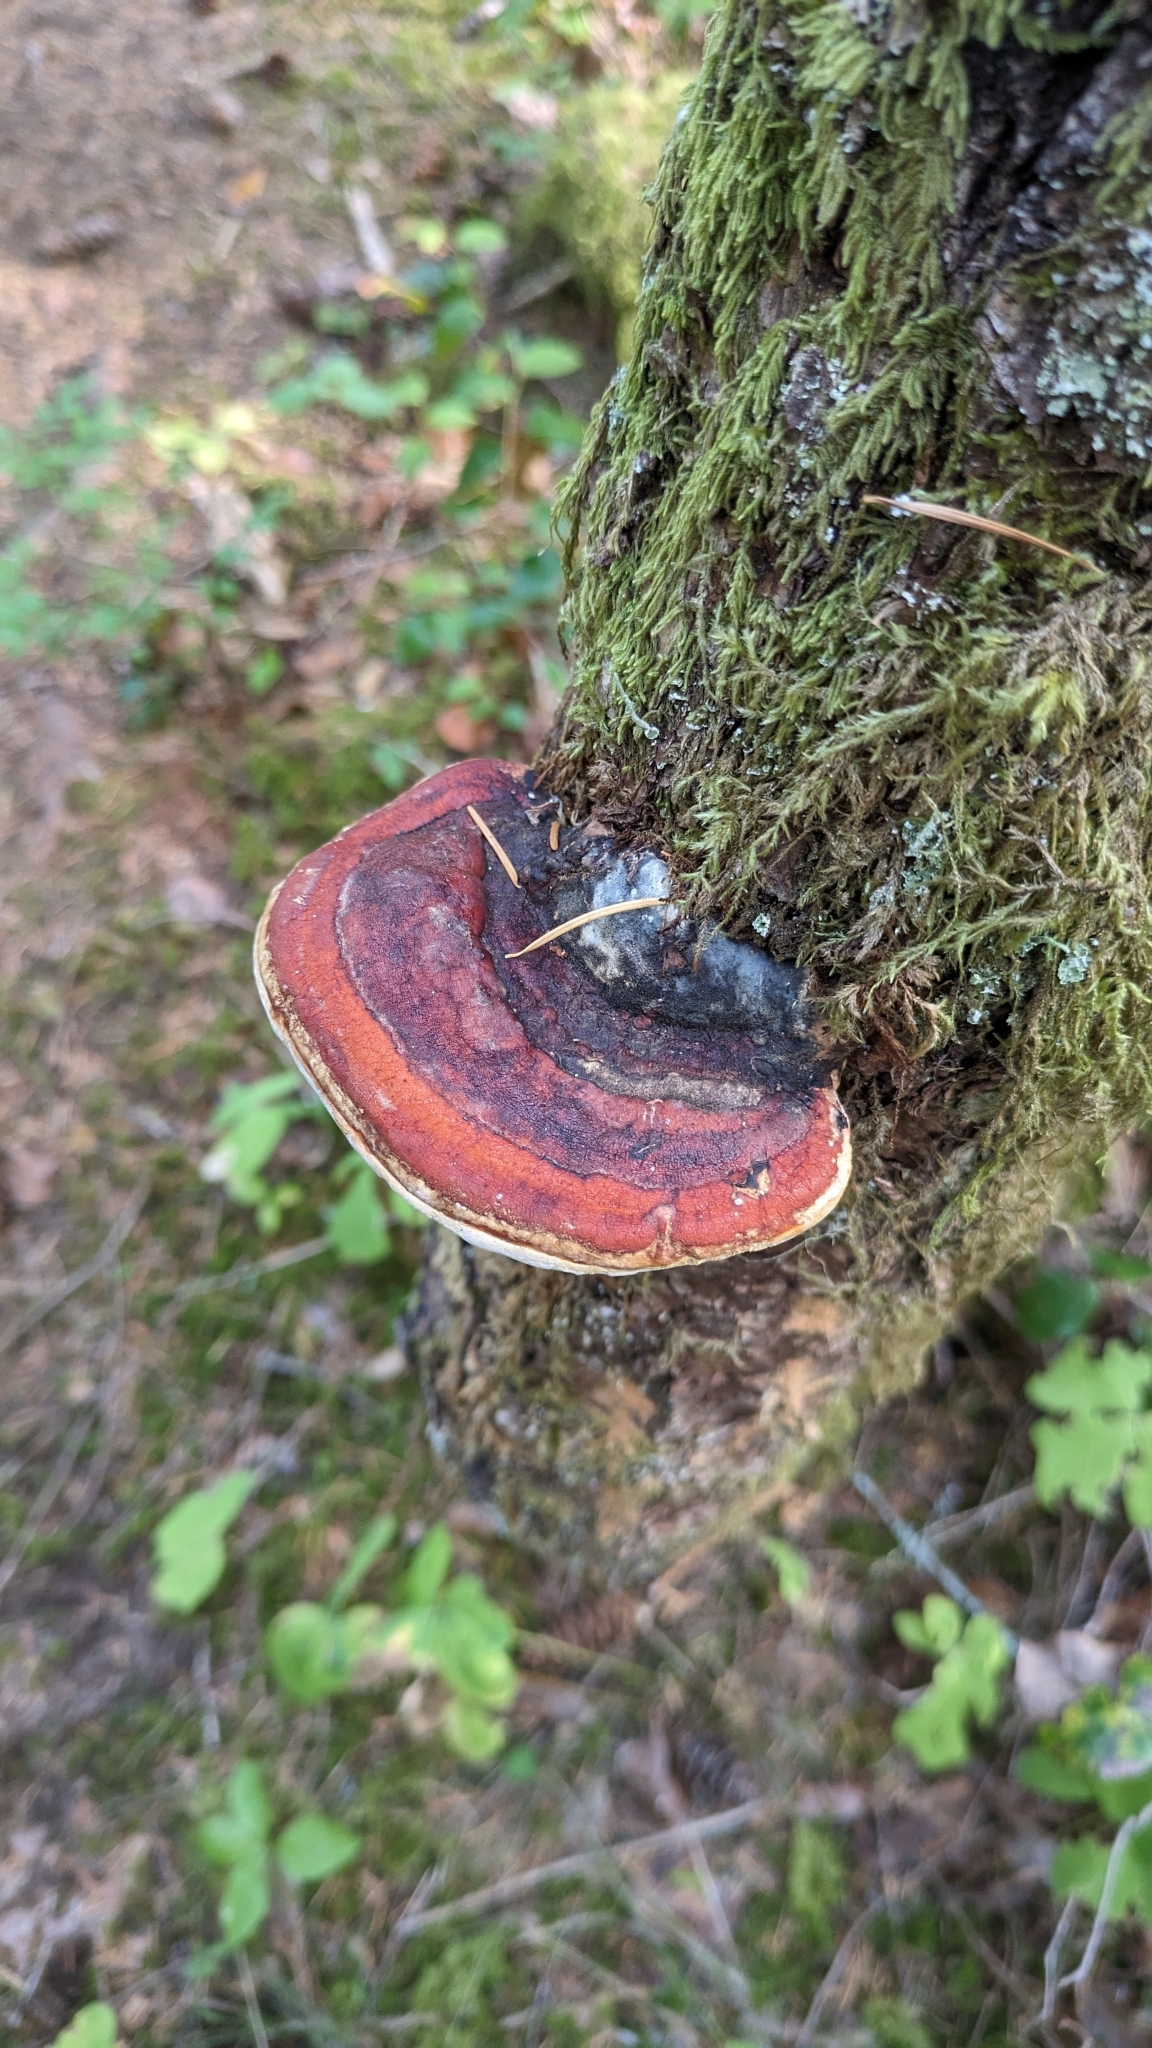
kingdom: Fungi
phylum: Basidiomycota
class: Agaricomycetes
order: Polyporales
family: Fomitopsidaceae
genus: Fomitopsis
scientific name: Fomitopsis mounceae
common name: Northern red belt
